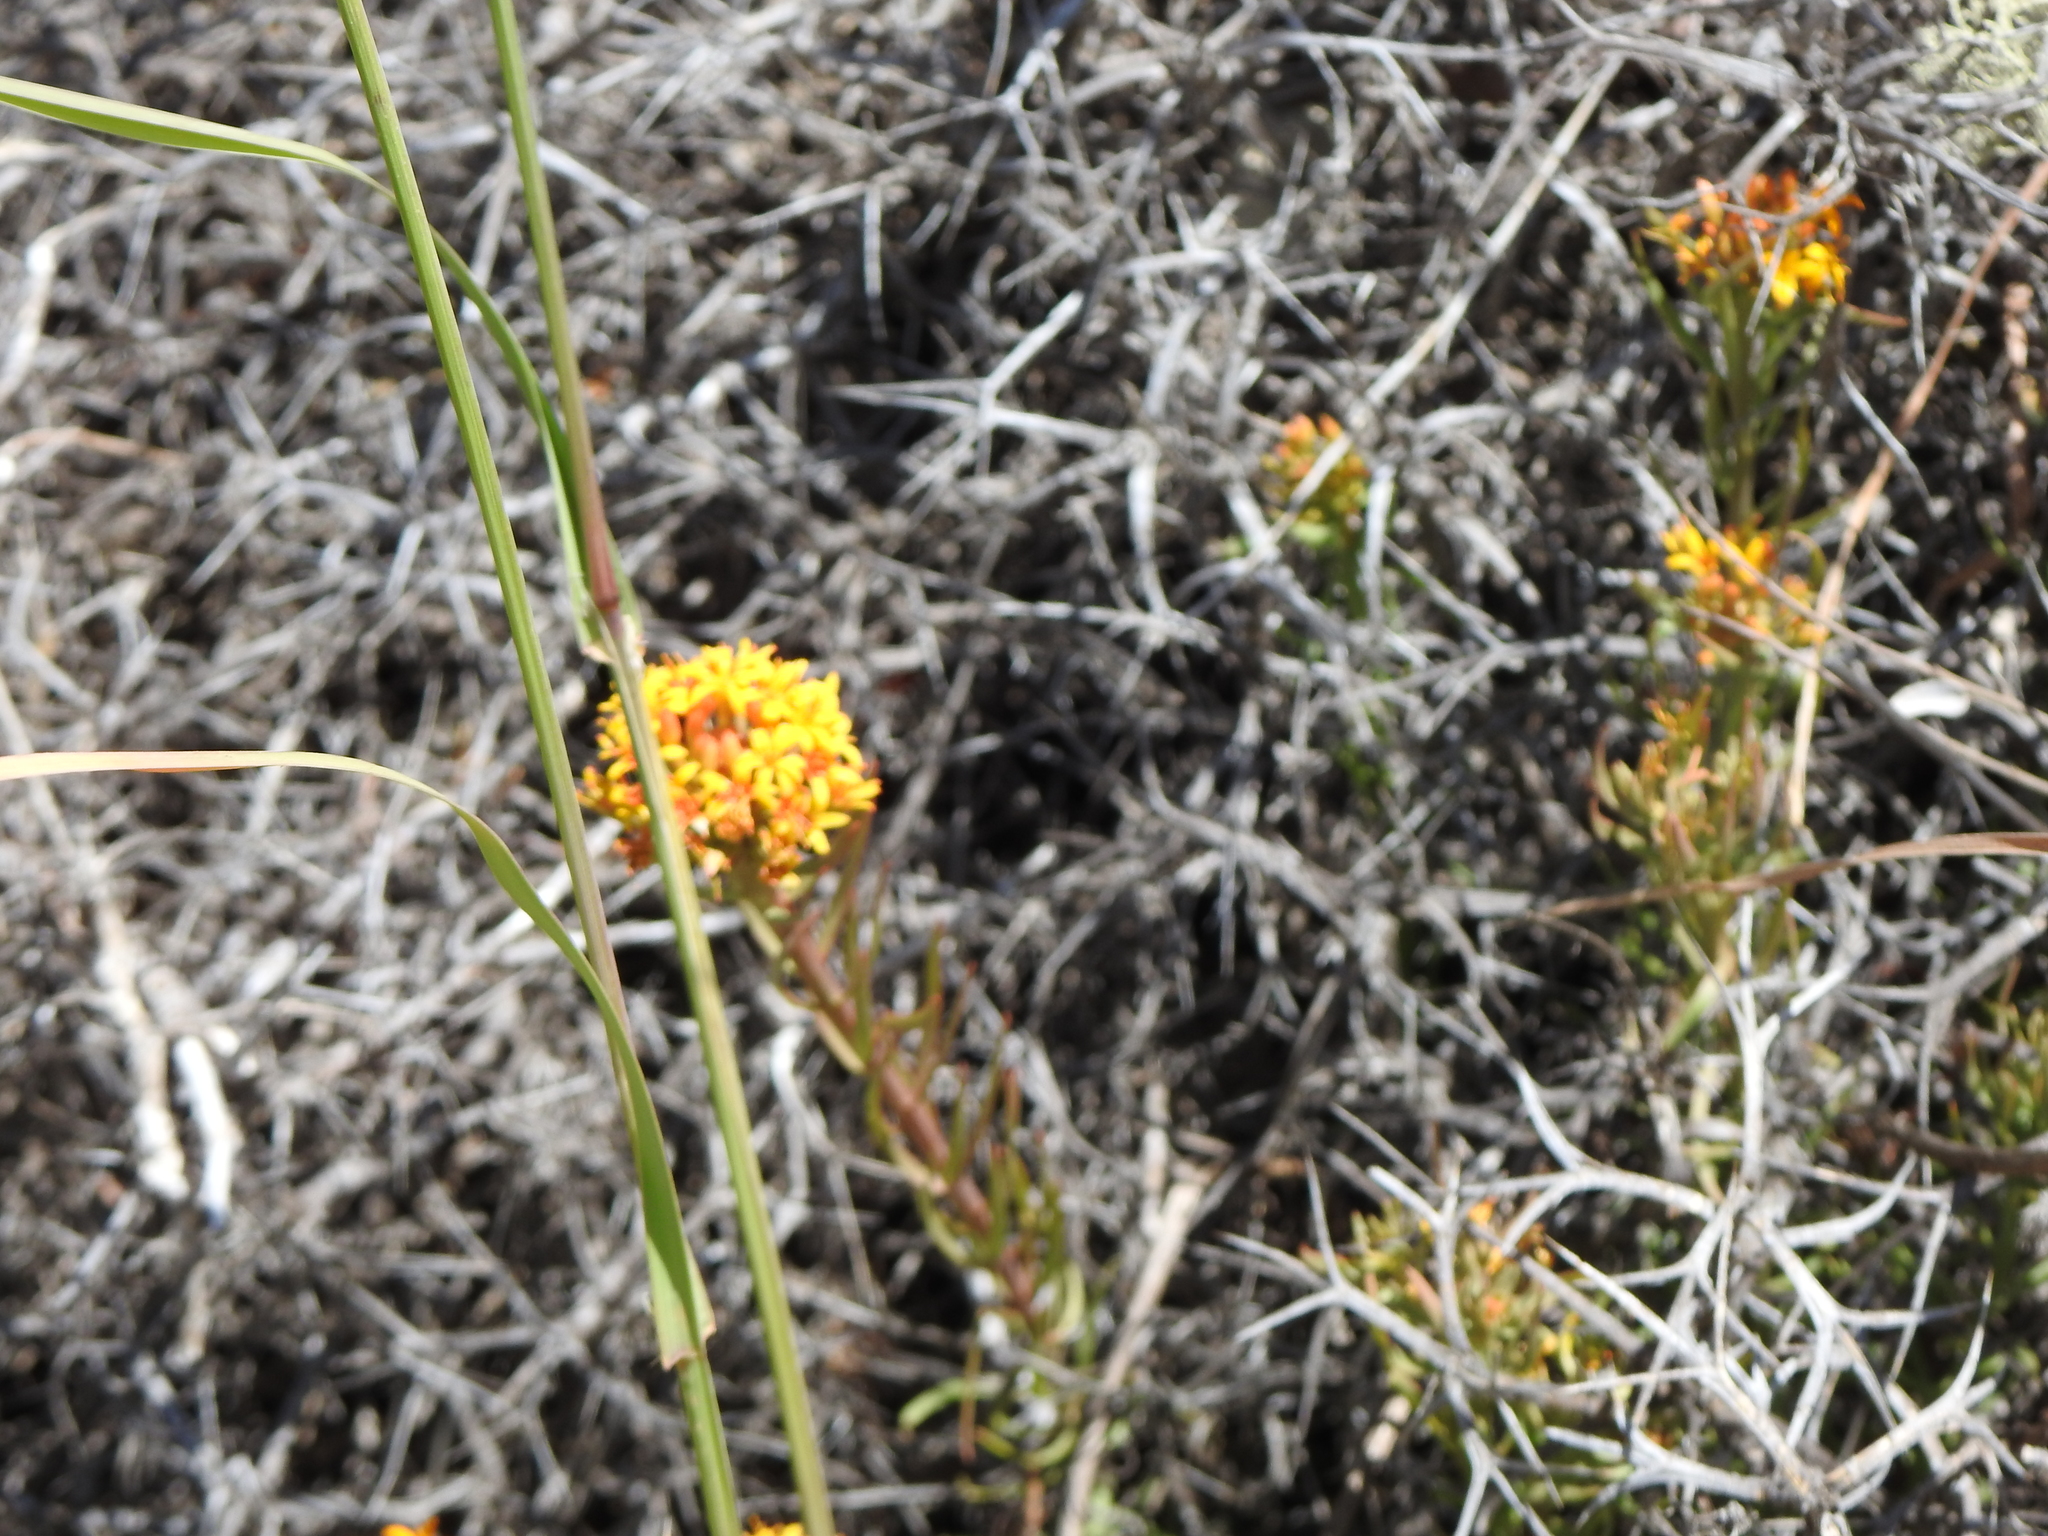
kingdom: Plantae
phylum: Tracheophyta
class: Magnoliopsida
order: Santalales
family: Schoepfiaceae
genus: Quinchamalium
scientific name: Quinchamalium chilense
